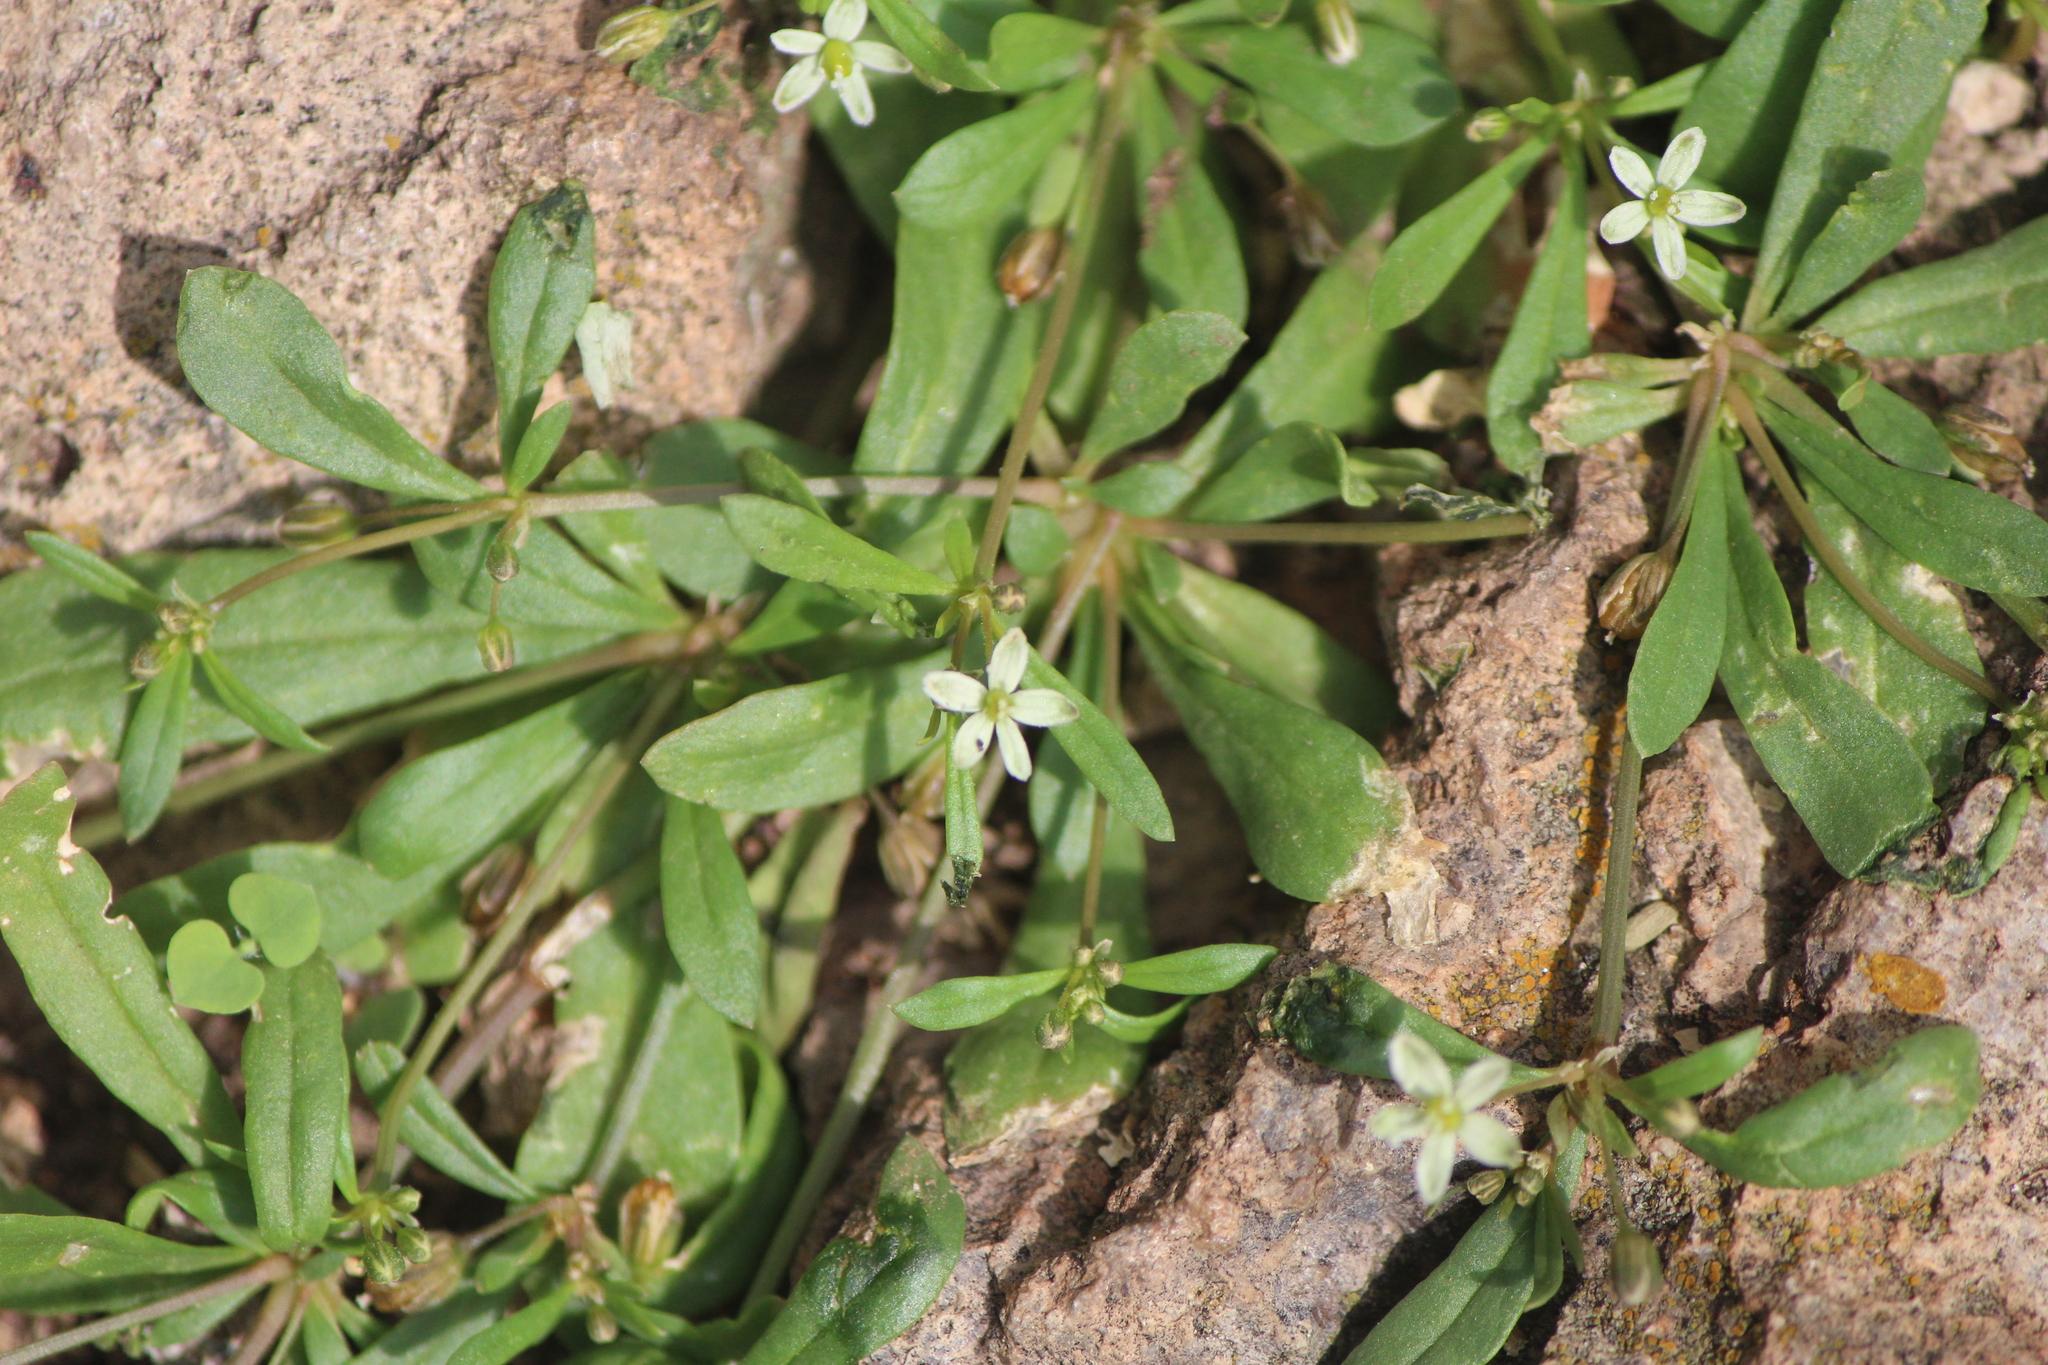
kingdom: Plantae
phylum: Tracheophyta
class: Magnoliopsida
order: Caryophyllales
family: Molluginaceae
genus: Mollugo
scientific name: Mollugo verticillata
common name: Green carpetweed
